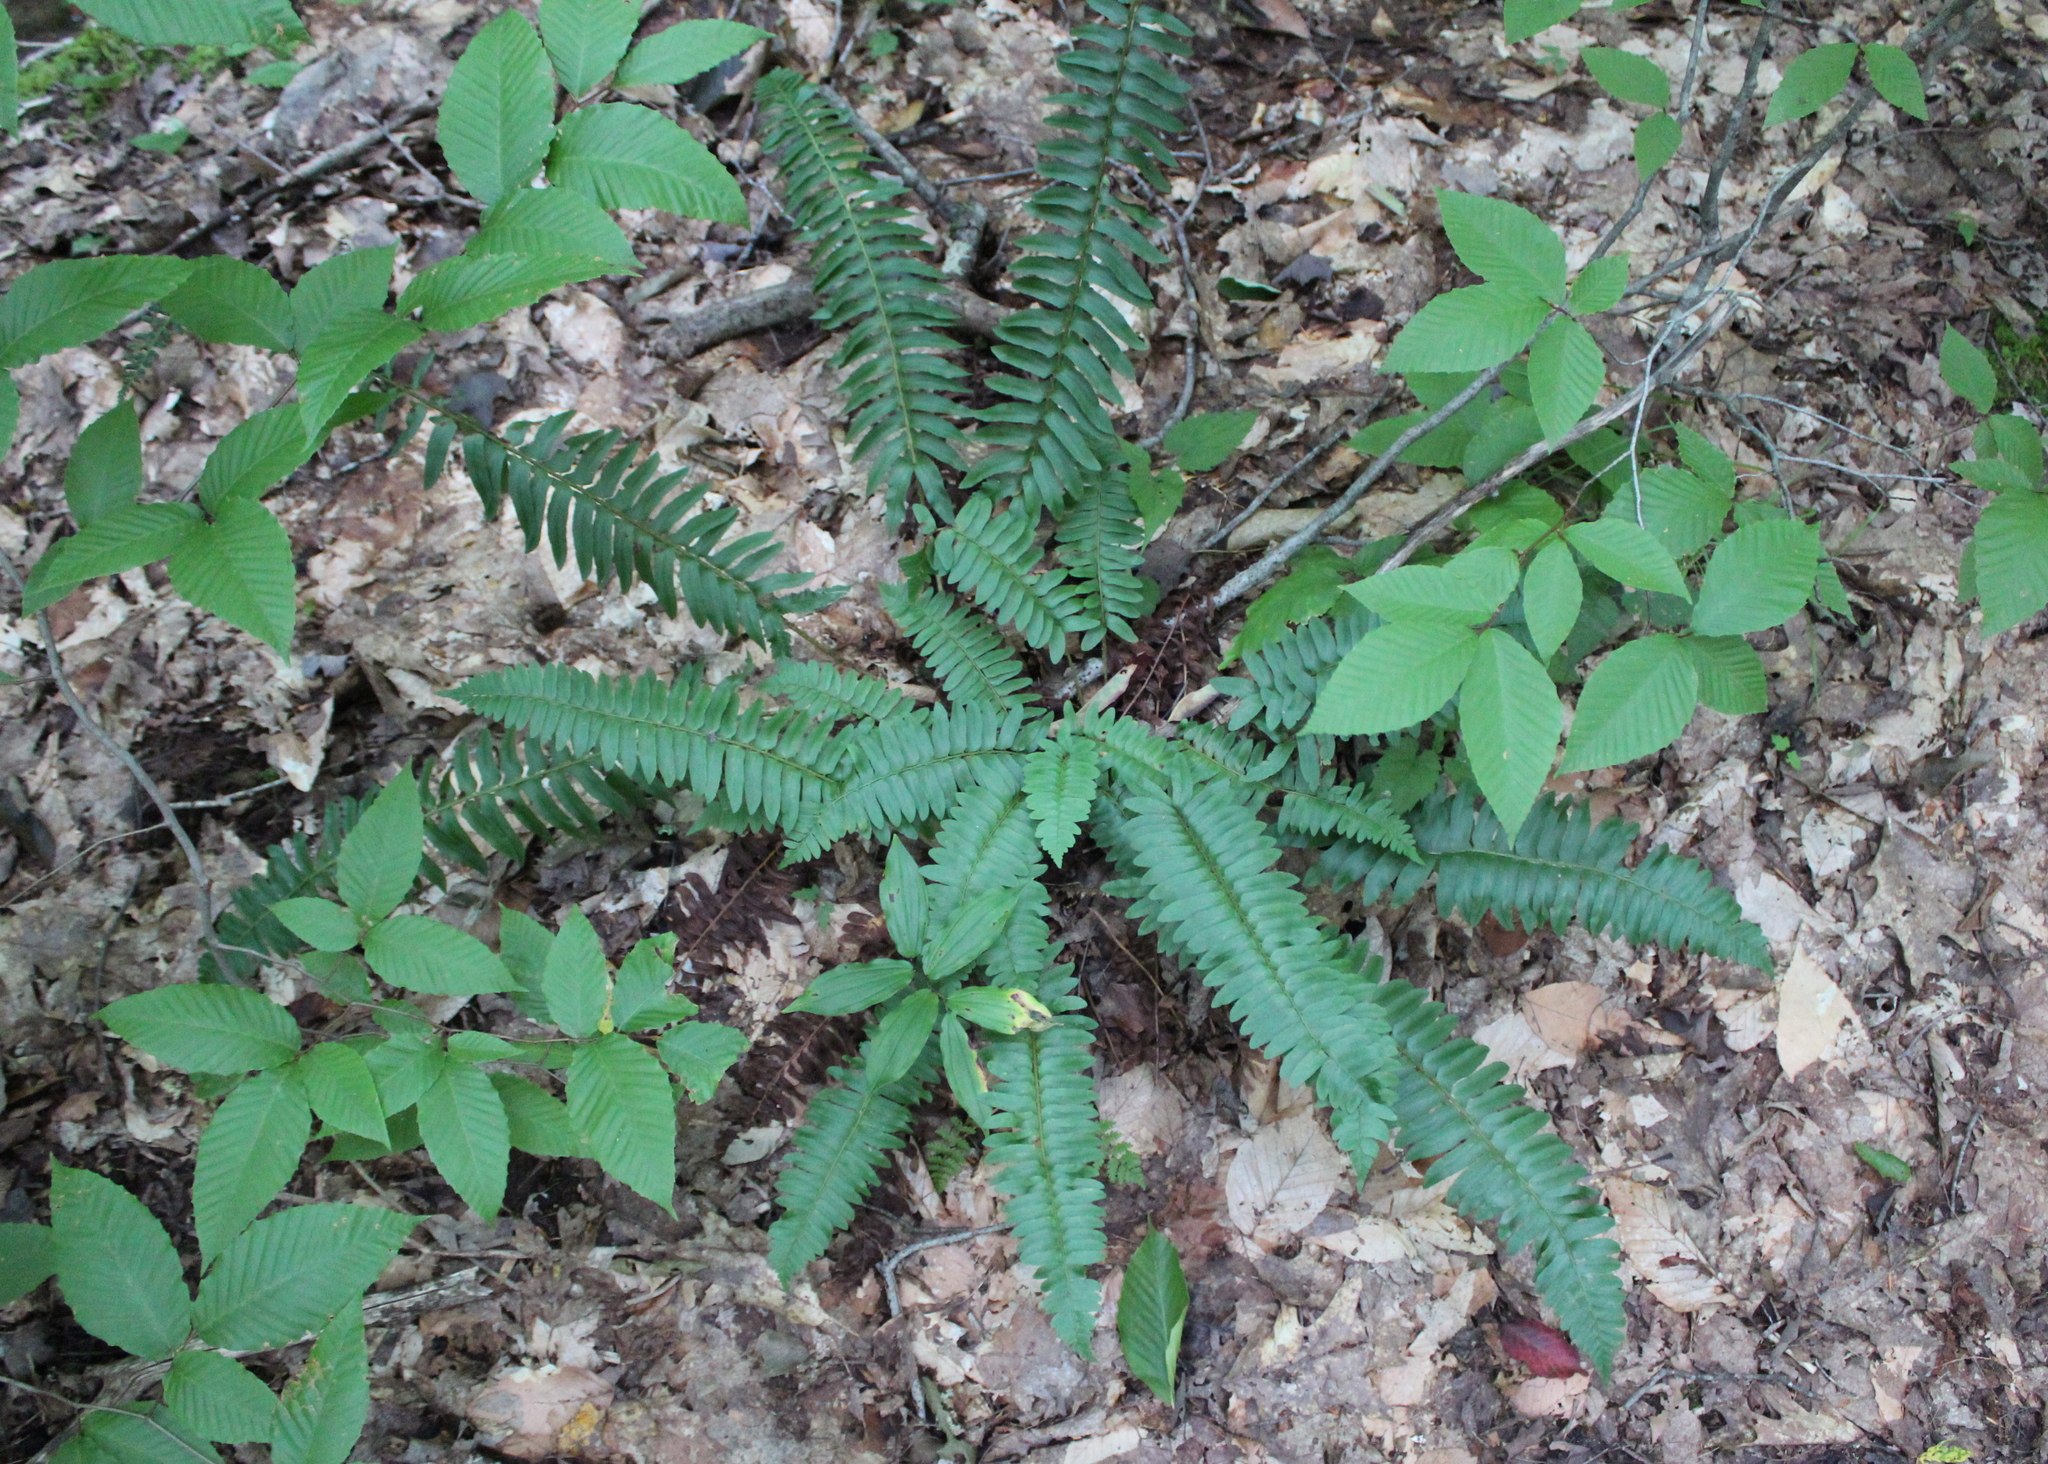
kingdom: Plantae
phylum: Tracheophyta
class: Polypodiopsida
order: Polypodiales
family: Dryopteridaceae
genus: Polystichum
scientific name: Polystichum acrostichoides
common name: Christmas fern
